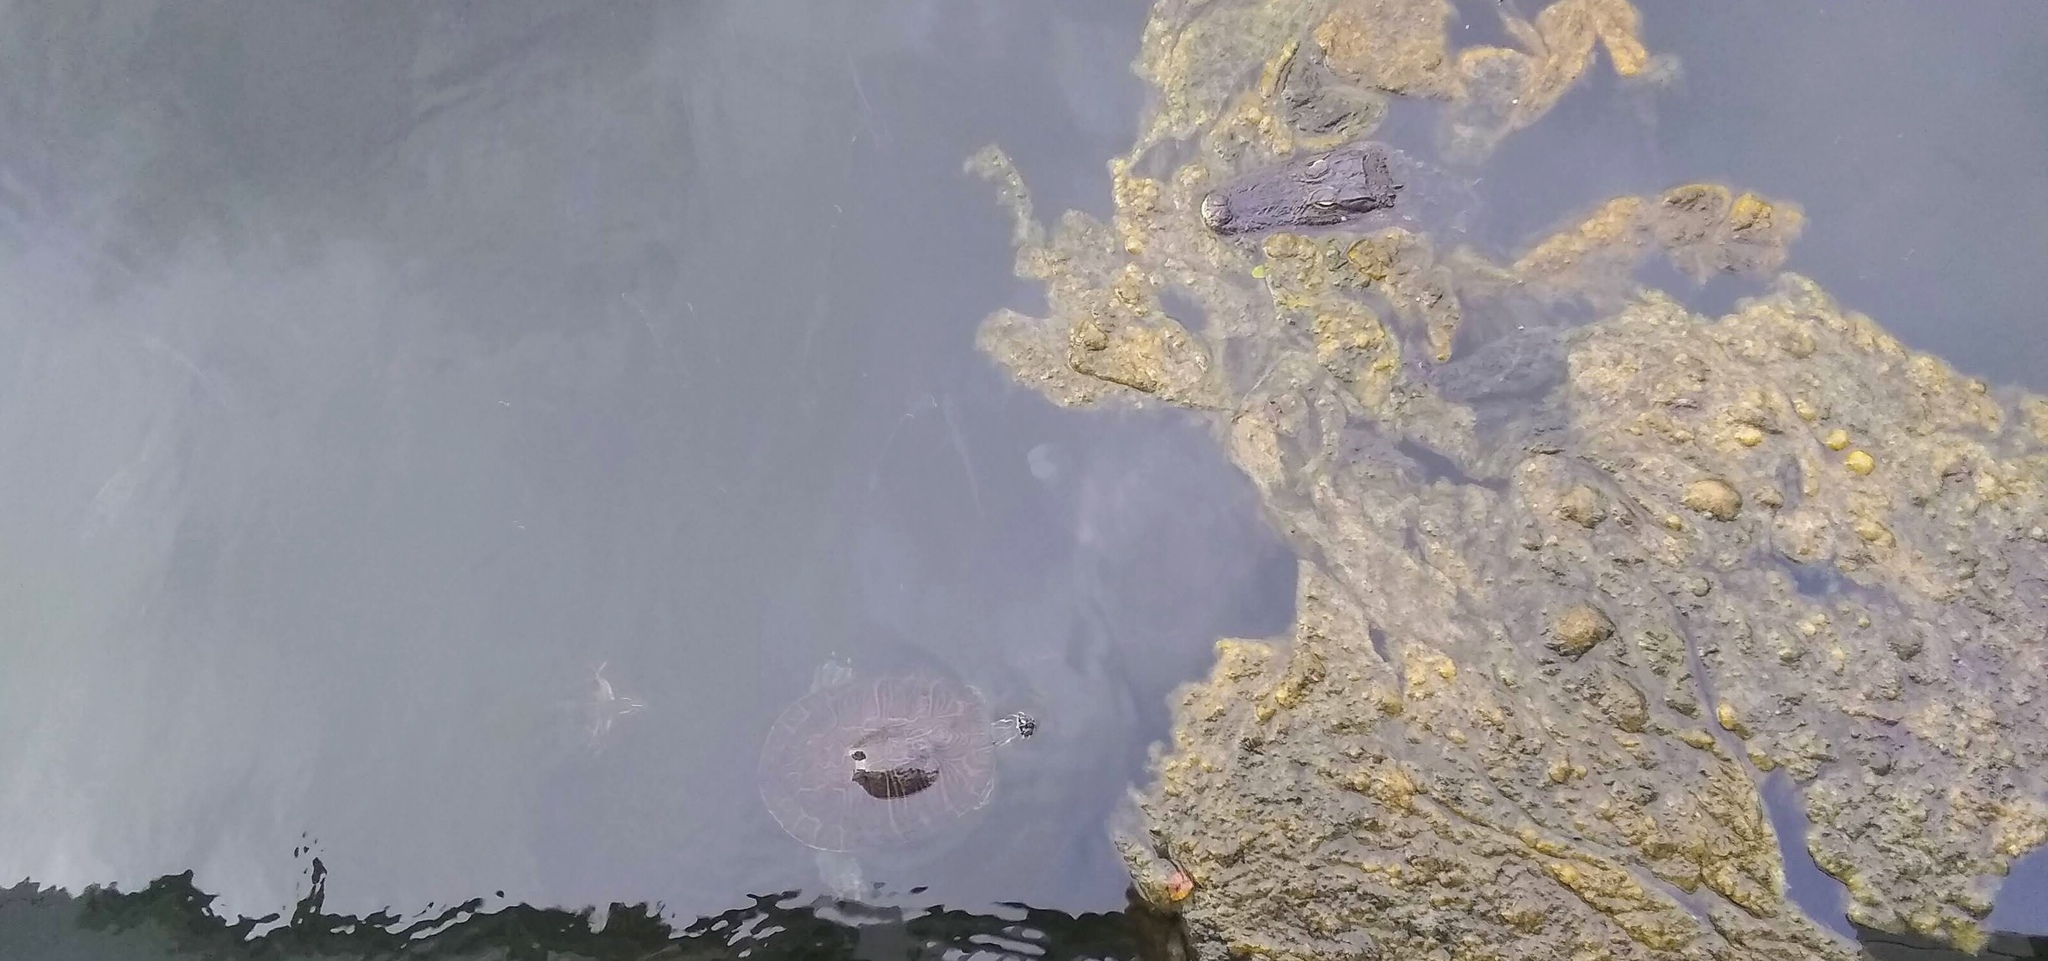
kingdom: Animalia
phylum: Chordata
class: Testudines
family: Emydidae
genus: Pseudemys
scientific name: Pseudemys peninsularis
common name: Peninsula cooter
